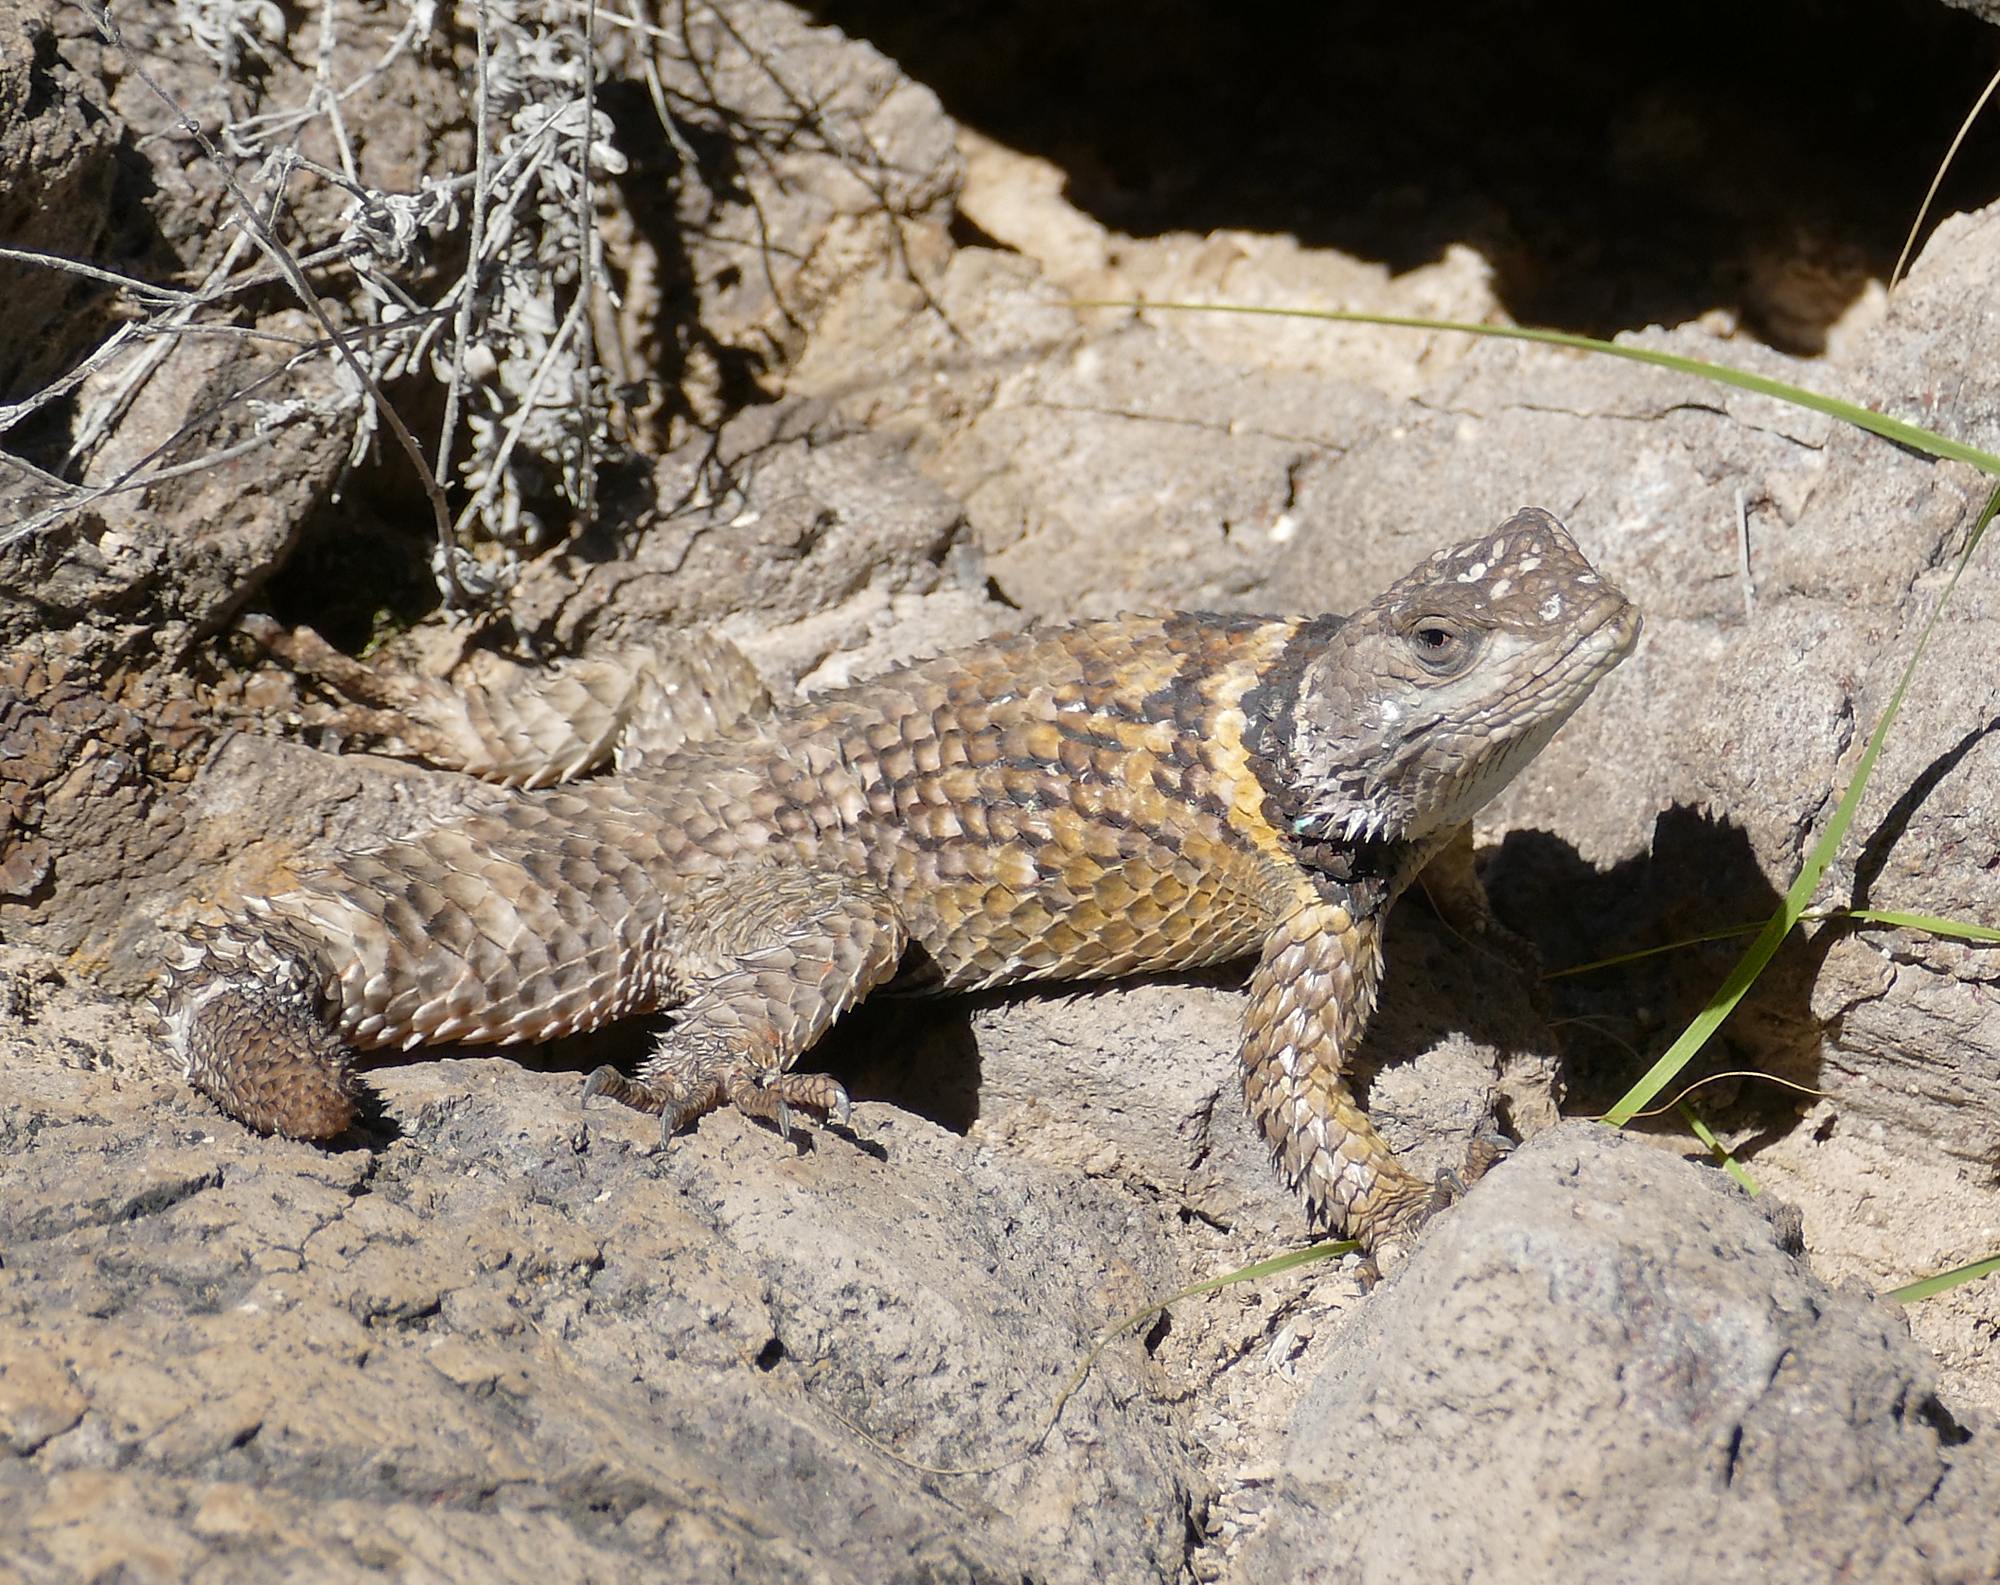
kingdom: Animalia
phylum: Chordata
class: Squamata
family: Phrynosomatidae
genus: Sceloporus
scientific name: Sceloporus poinsettii
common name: Crevice spiny lizard
